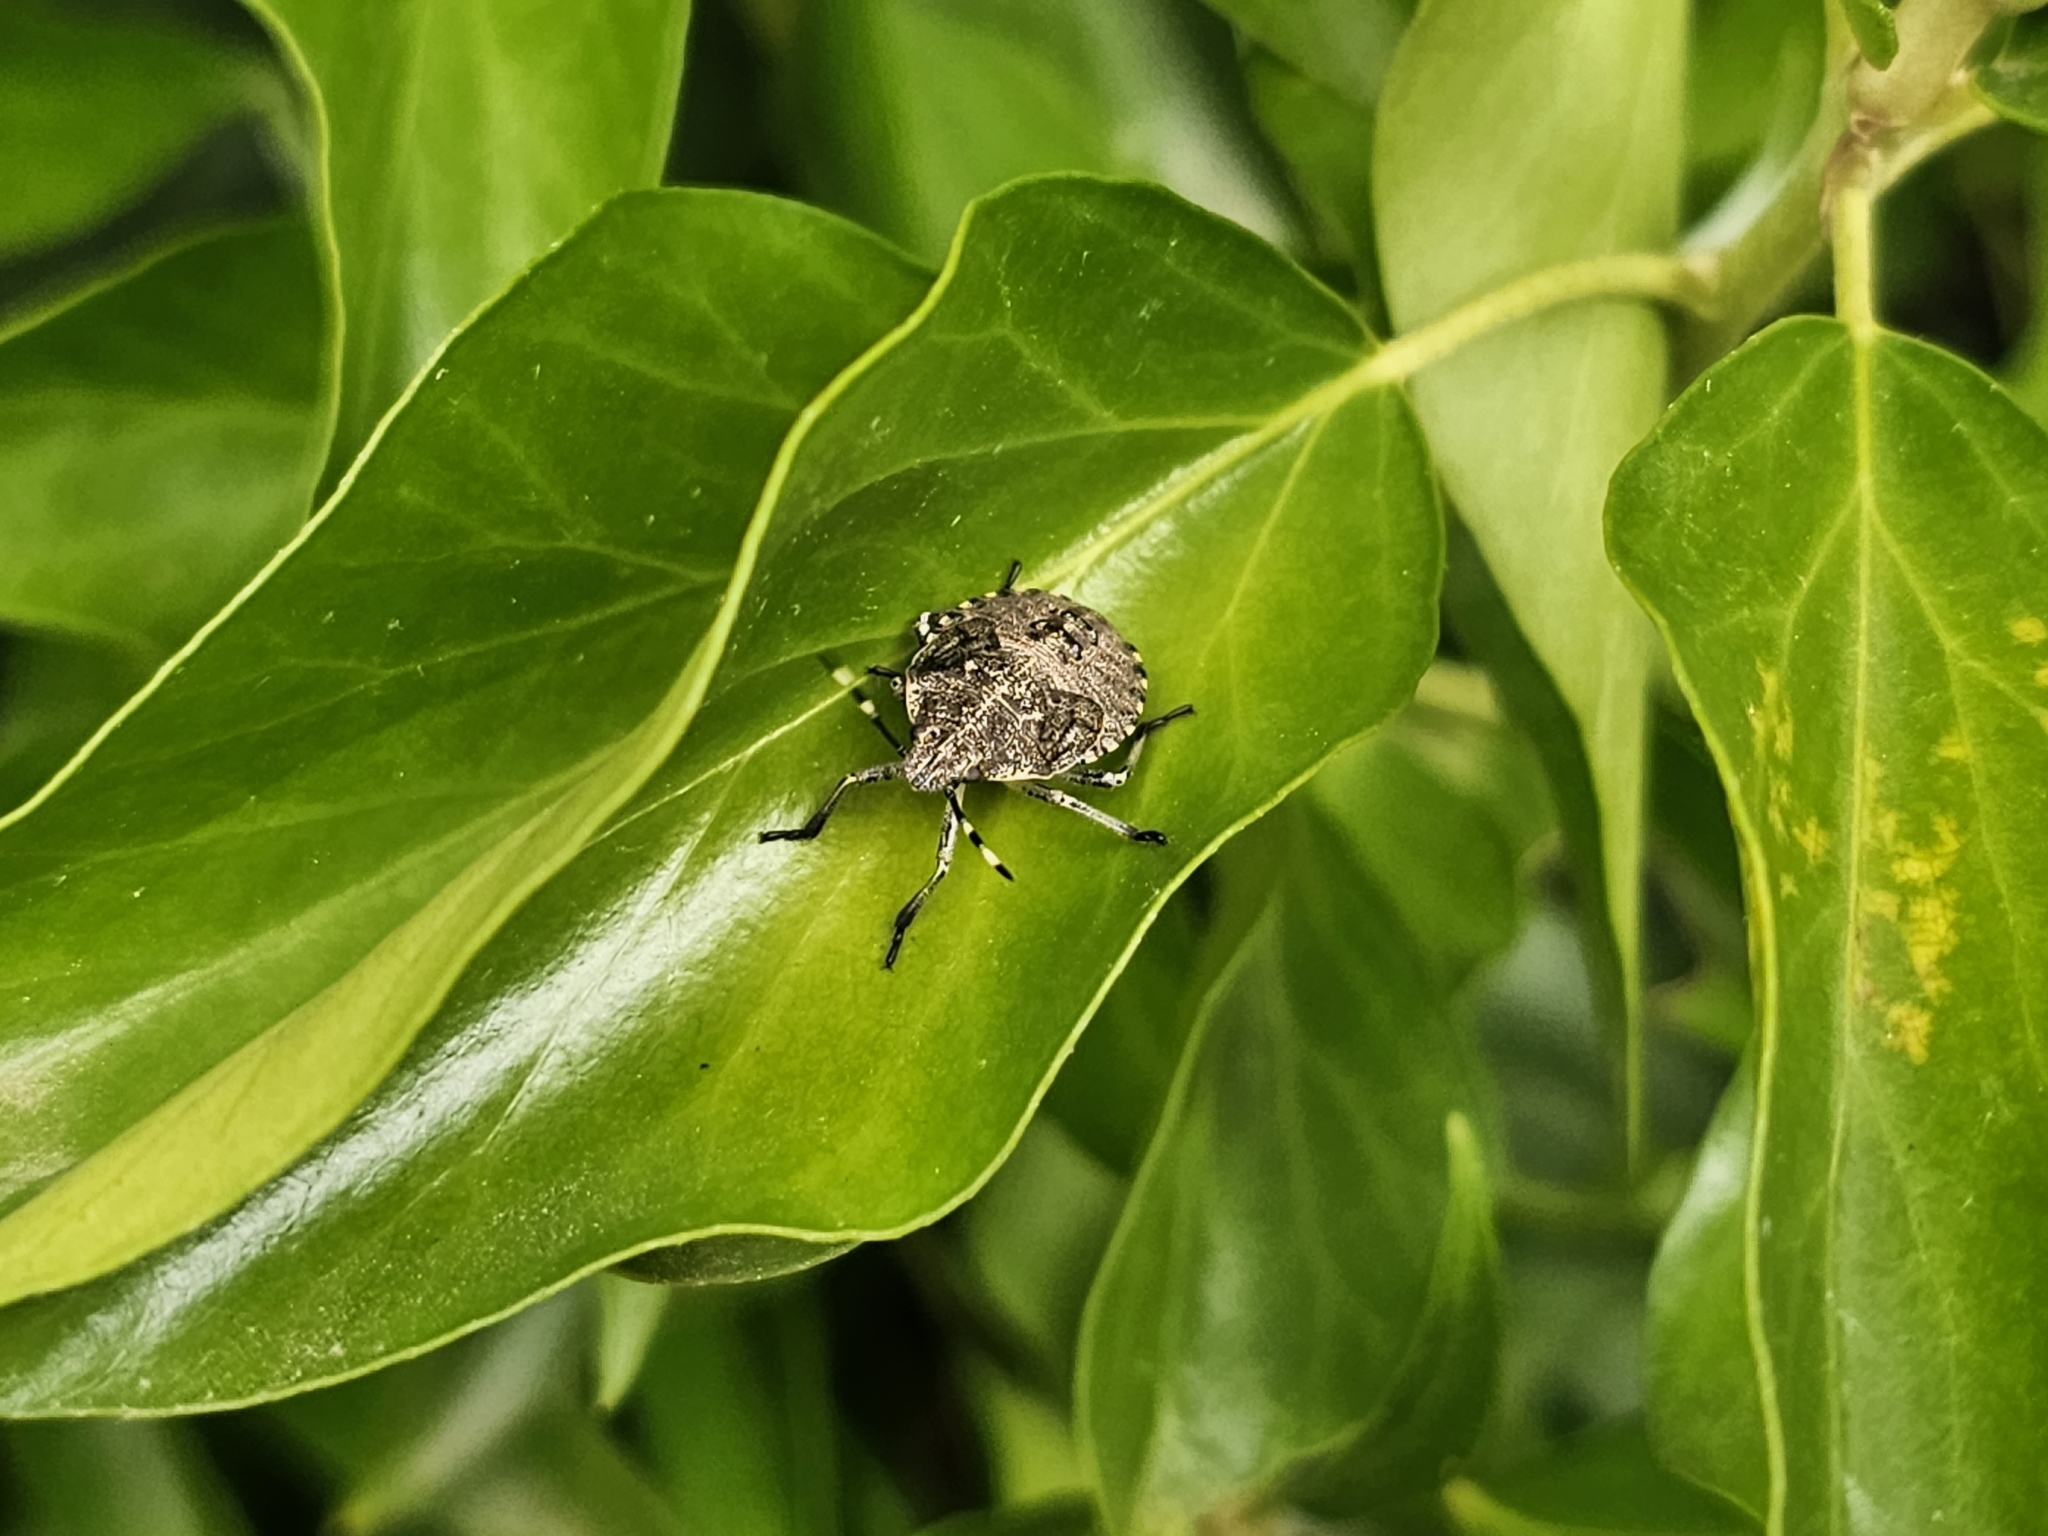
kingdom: Animalia
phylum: Arthropoda
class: Insecta
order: Hemiptera
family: Pentatomidae
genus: Rhaphigaster
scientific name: Rhaphigaster nebulosa
